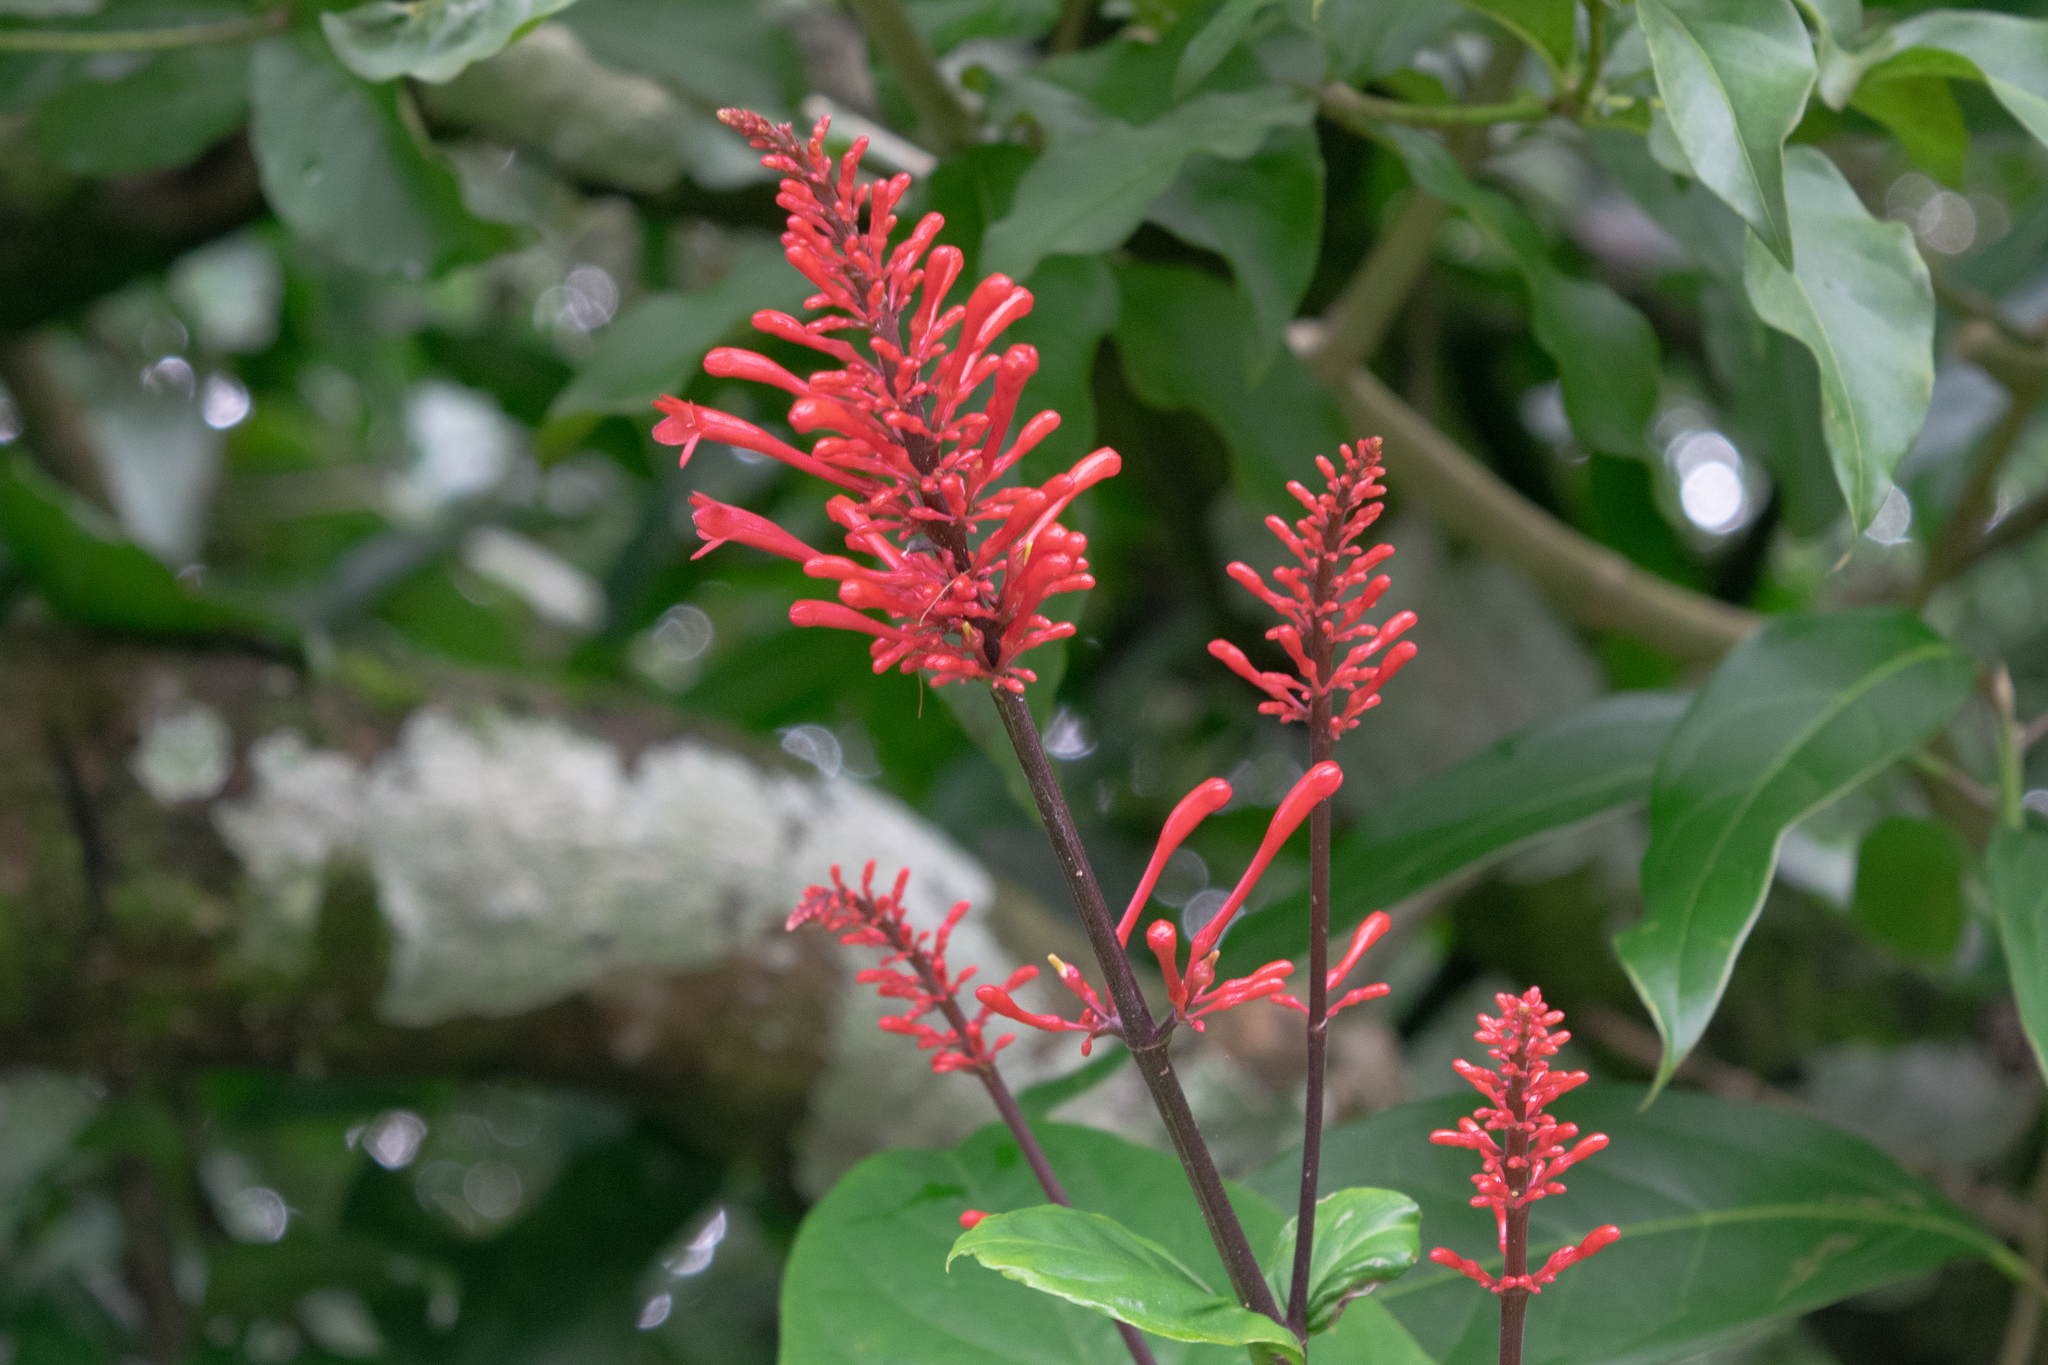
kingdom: Plantae
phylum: Tracheophyta
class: Magnoliopsida
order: Lamiales
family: Acanthaceae
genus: Odontonema
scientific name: Odontonema tubaeforme
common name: Firespike
